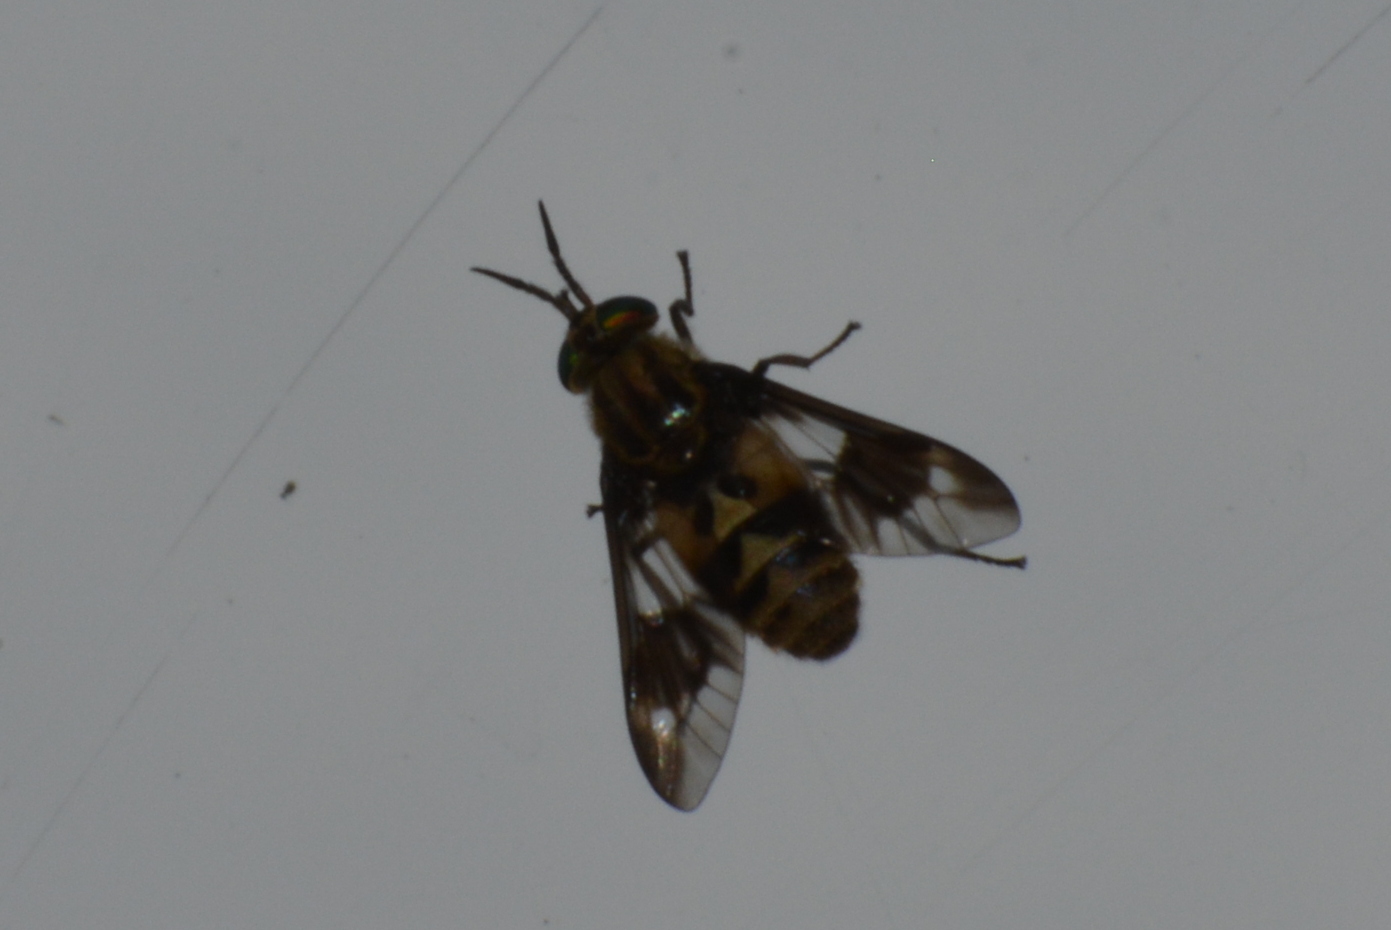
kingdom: Animalia
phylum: Arthropoda
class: Insecta
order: Diptera
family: Tabanidae
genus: Chrysops
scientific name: Chrysops relictus
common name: Twin-lobed deerfly
